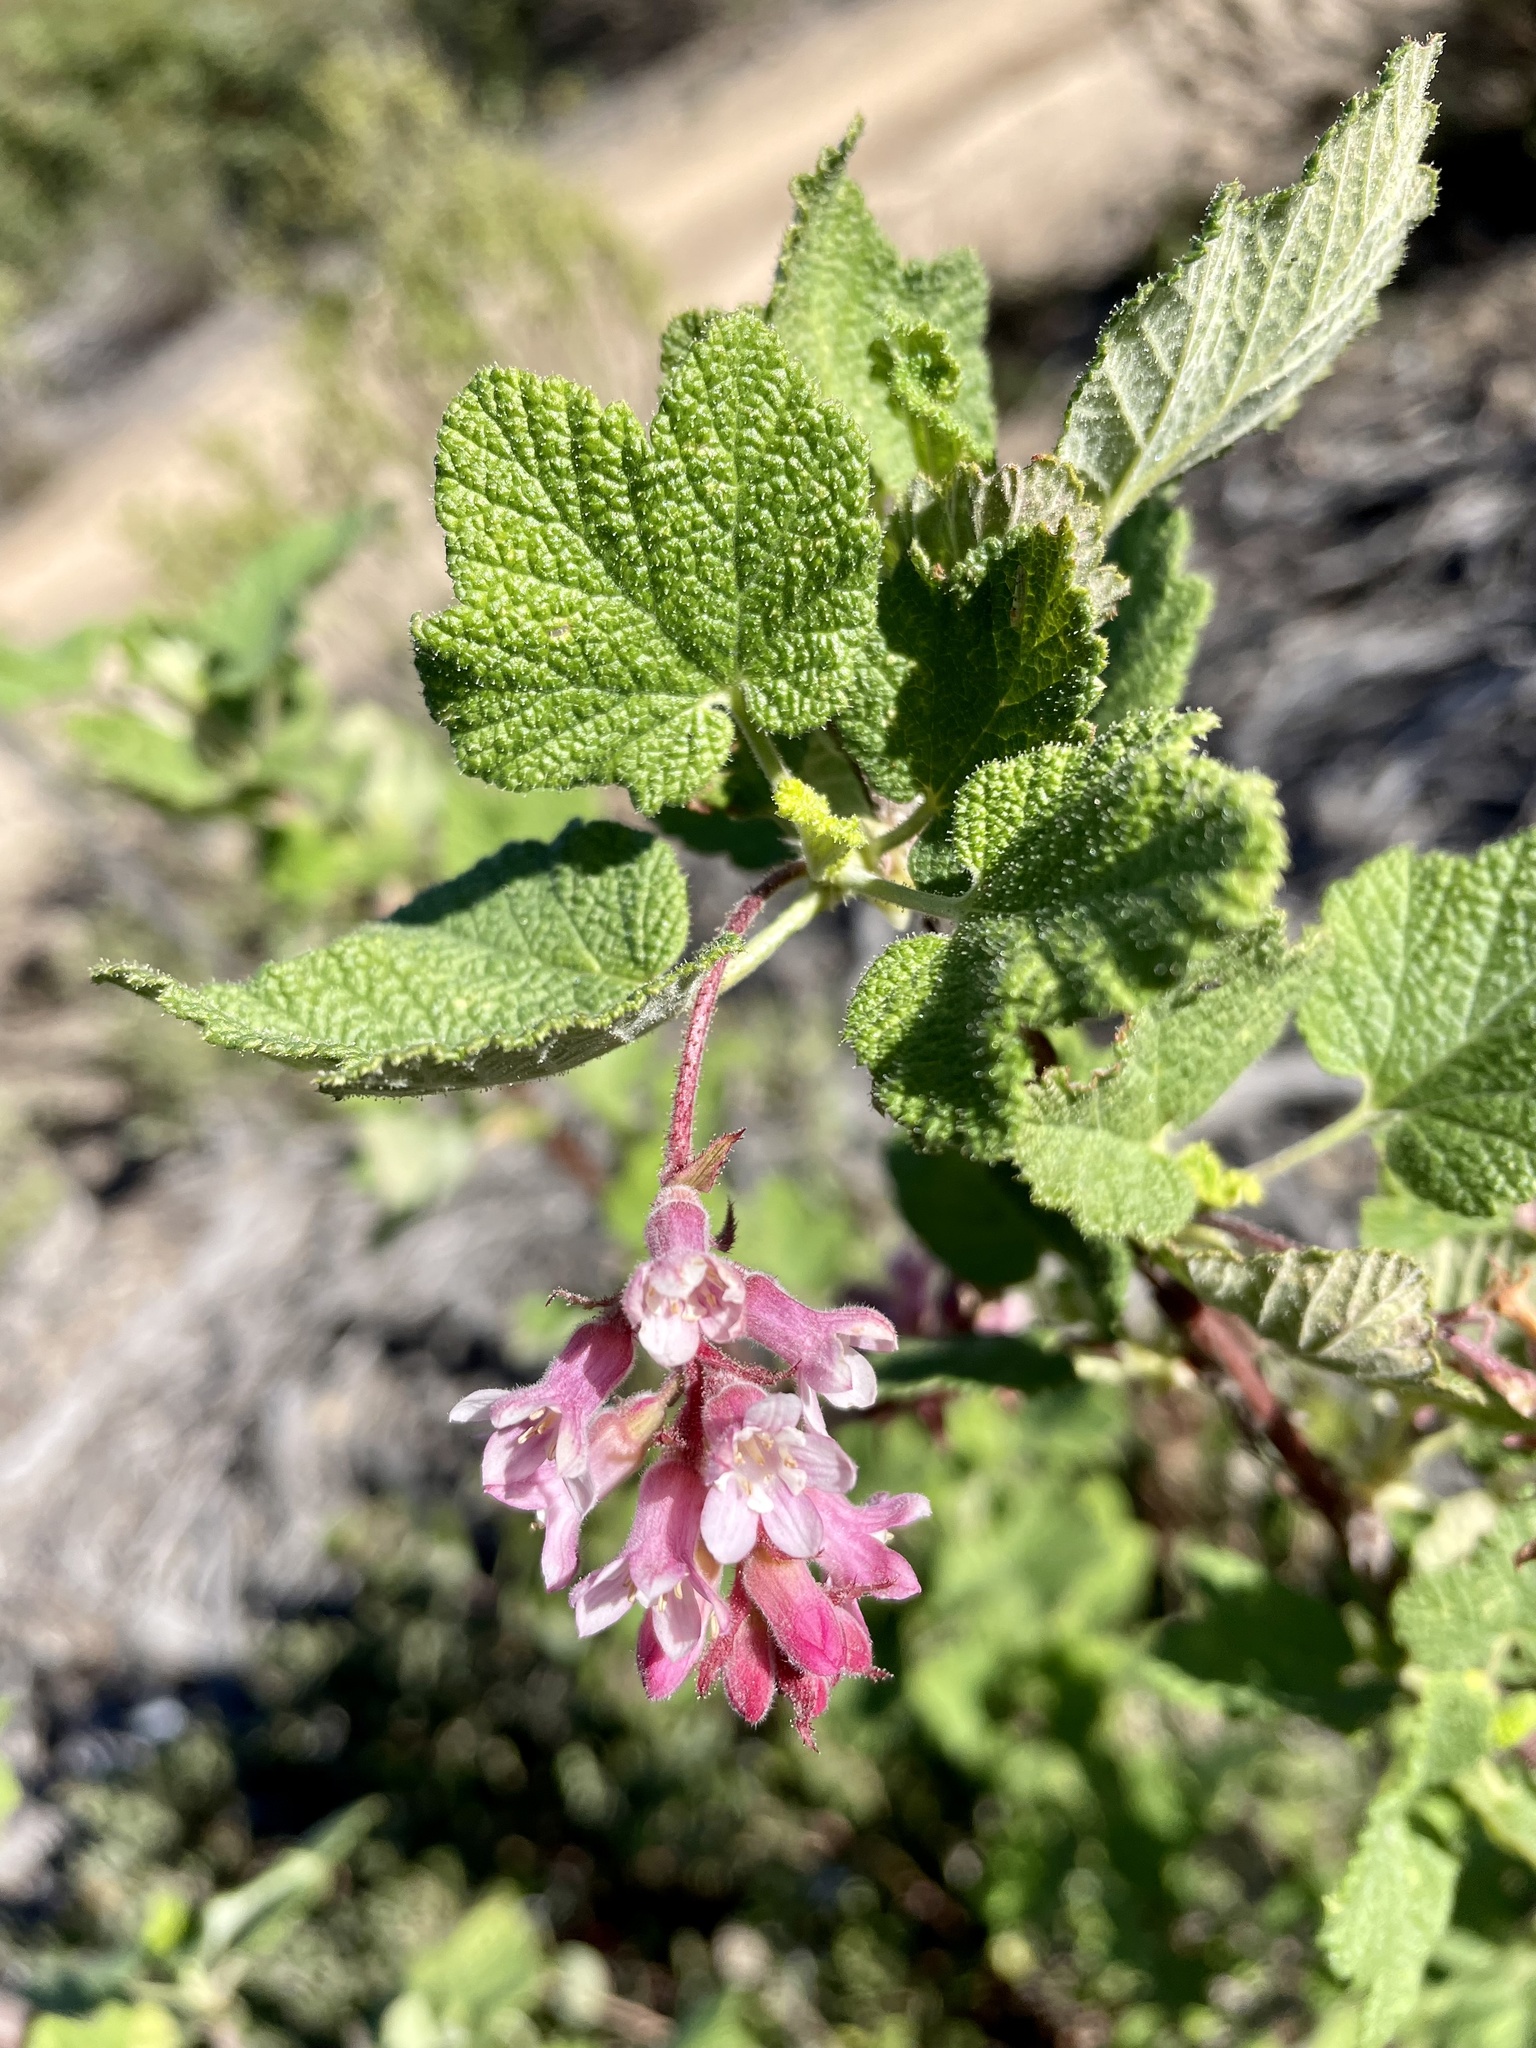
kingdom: Plantae
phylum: Tracheophyta
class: Magnoliopsida
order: Saxifragales
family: Grossulariaceae
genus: Ribes
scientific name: Ribes malvaceum
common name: Chaparral currant
